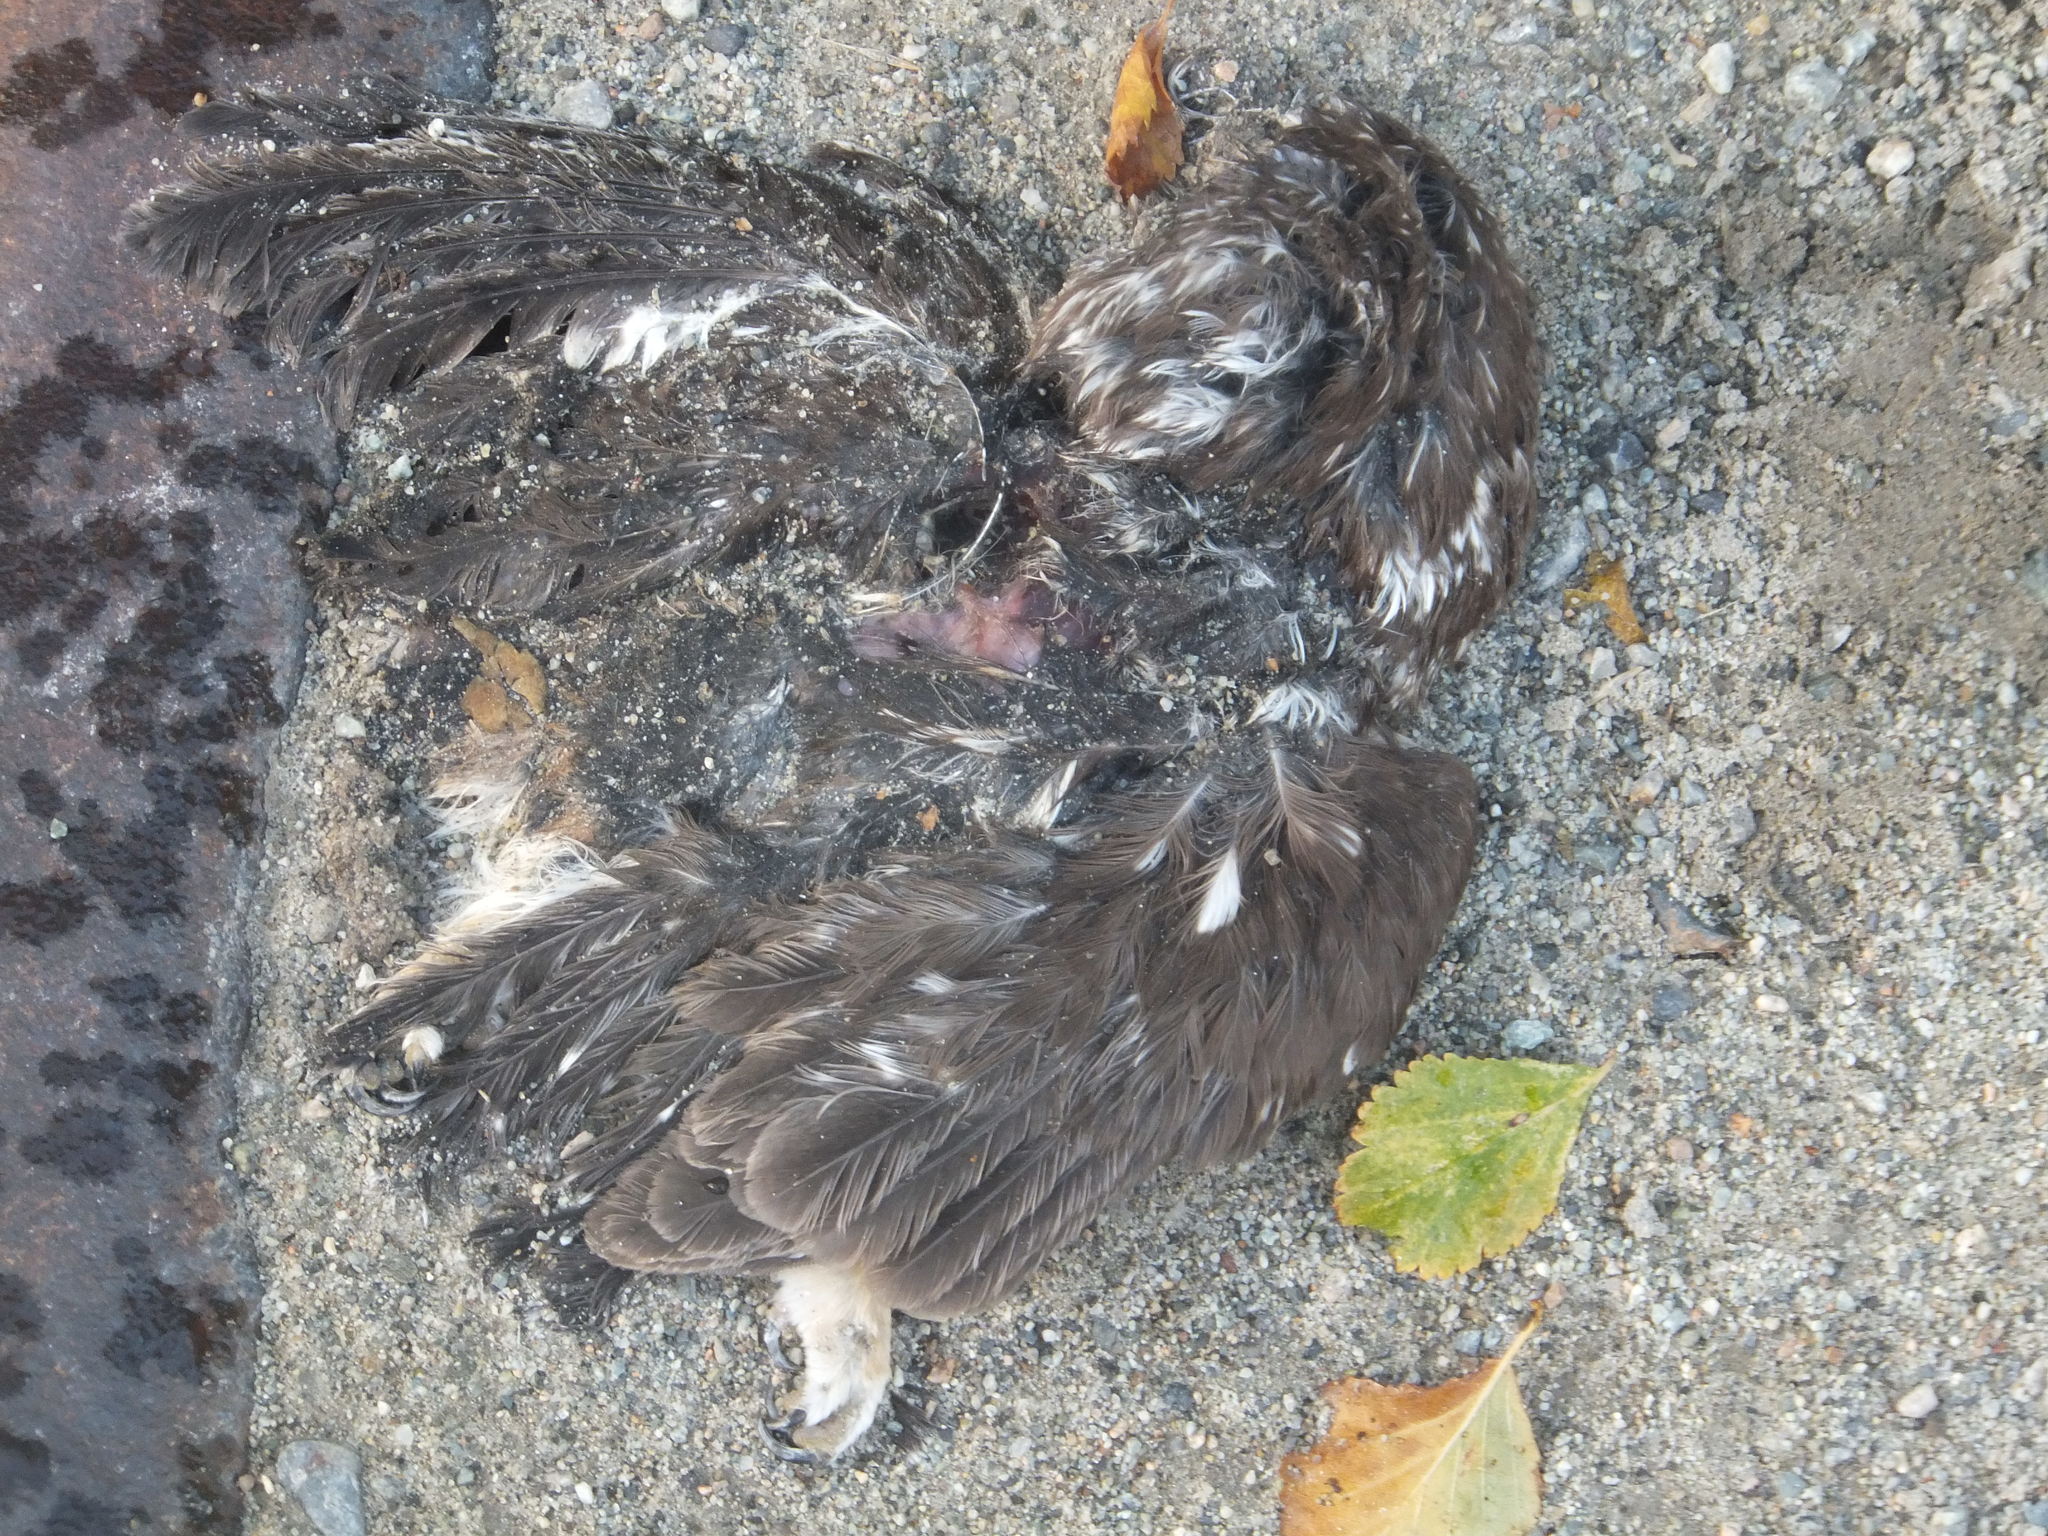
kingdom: Animalia
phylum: Chordata
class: Aves
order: Strigiformes
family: Strigidae
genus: Aegolius
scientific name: Aegolius acadicus
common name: Northern saw-whet owl
